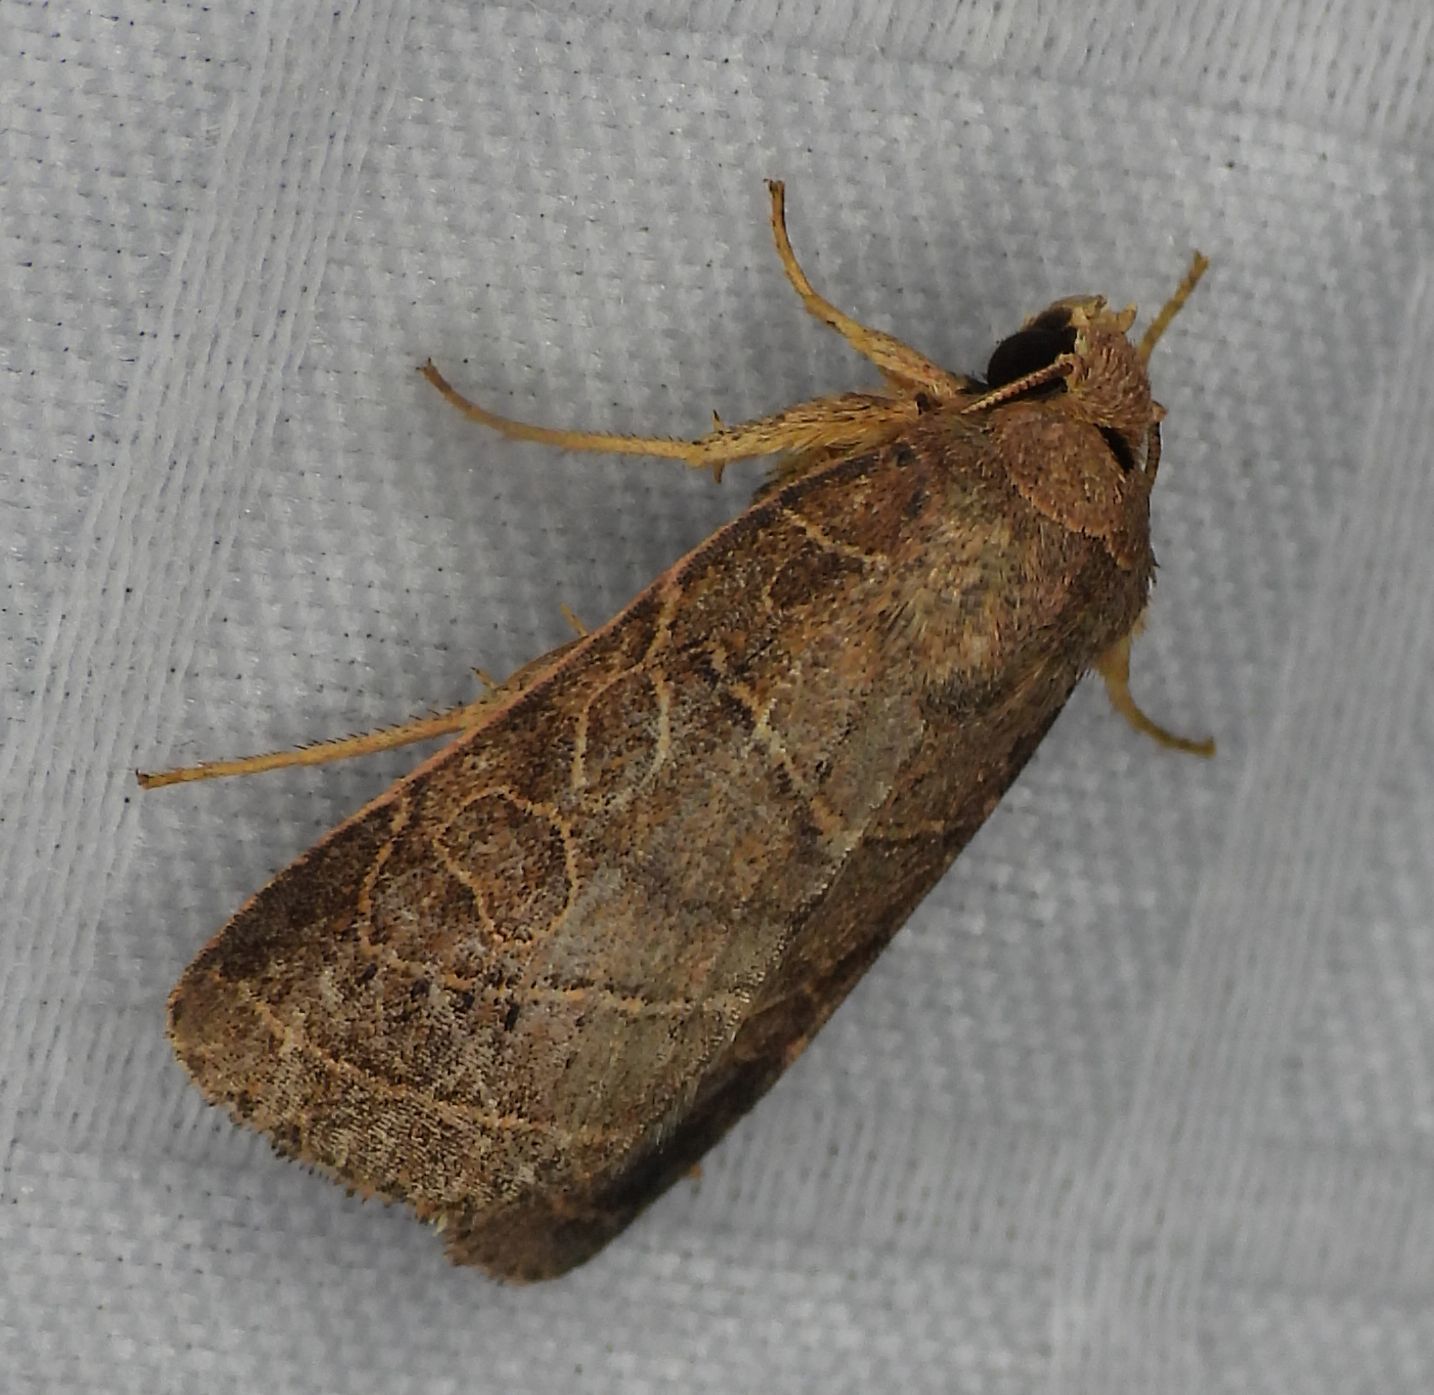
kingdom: Animalia
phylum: Arthropoda
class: Insecta
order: Lepidoptera
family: Noctuidae
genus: Orthodes
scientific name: Orthodes majuscula
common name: Rustic quaker
